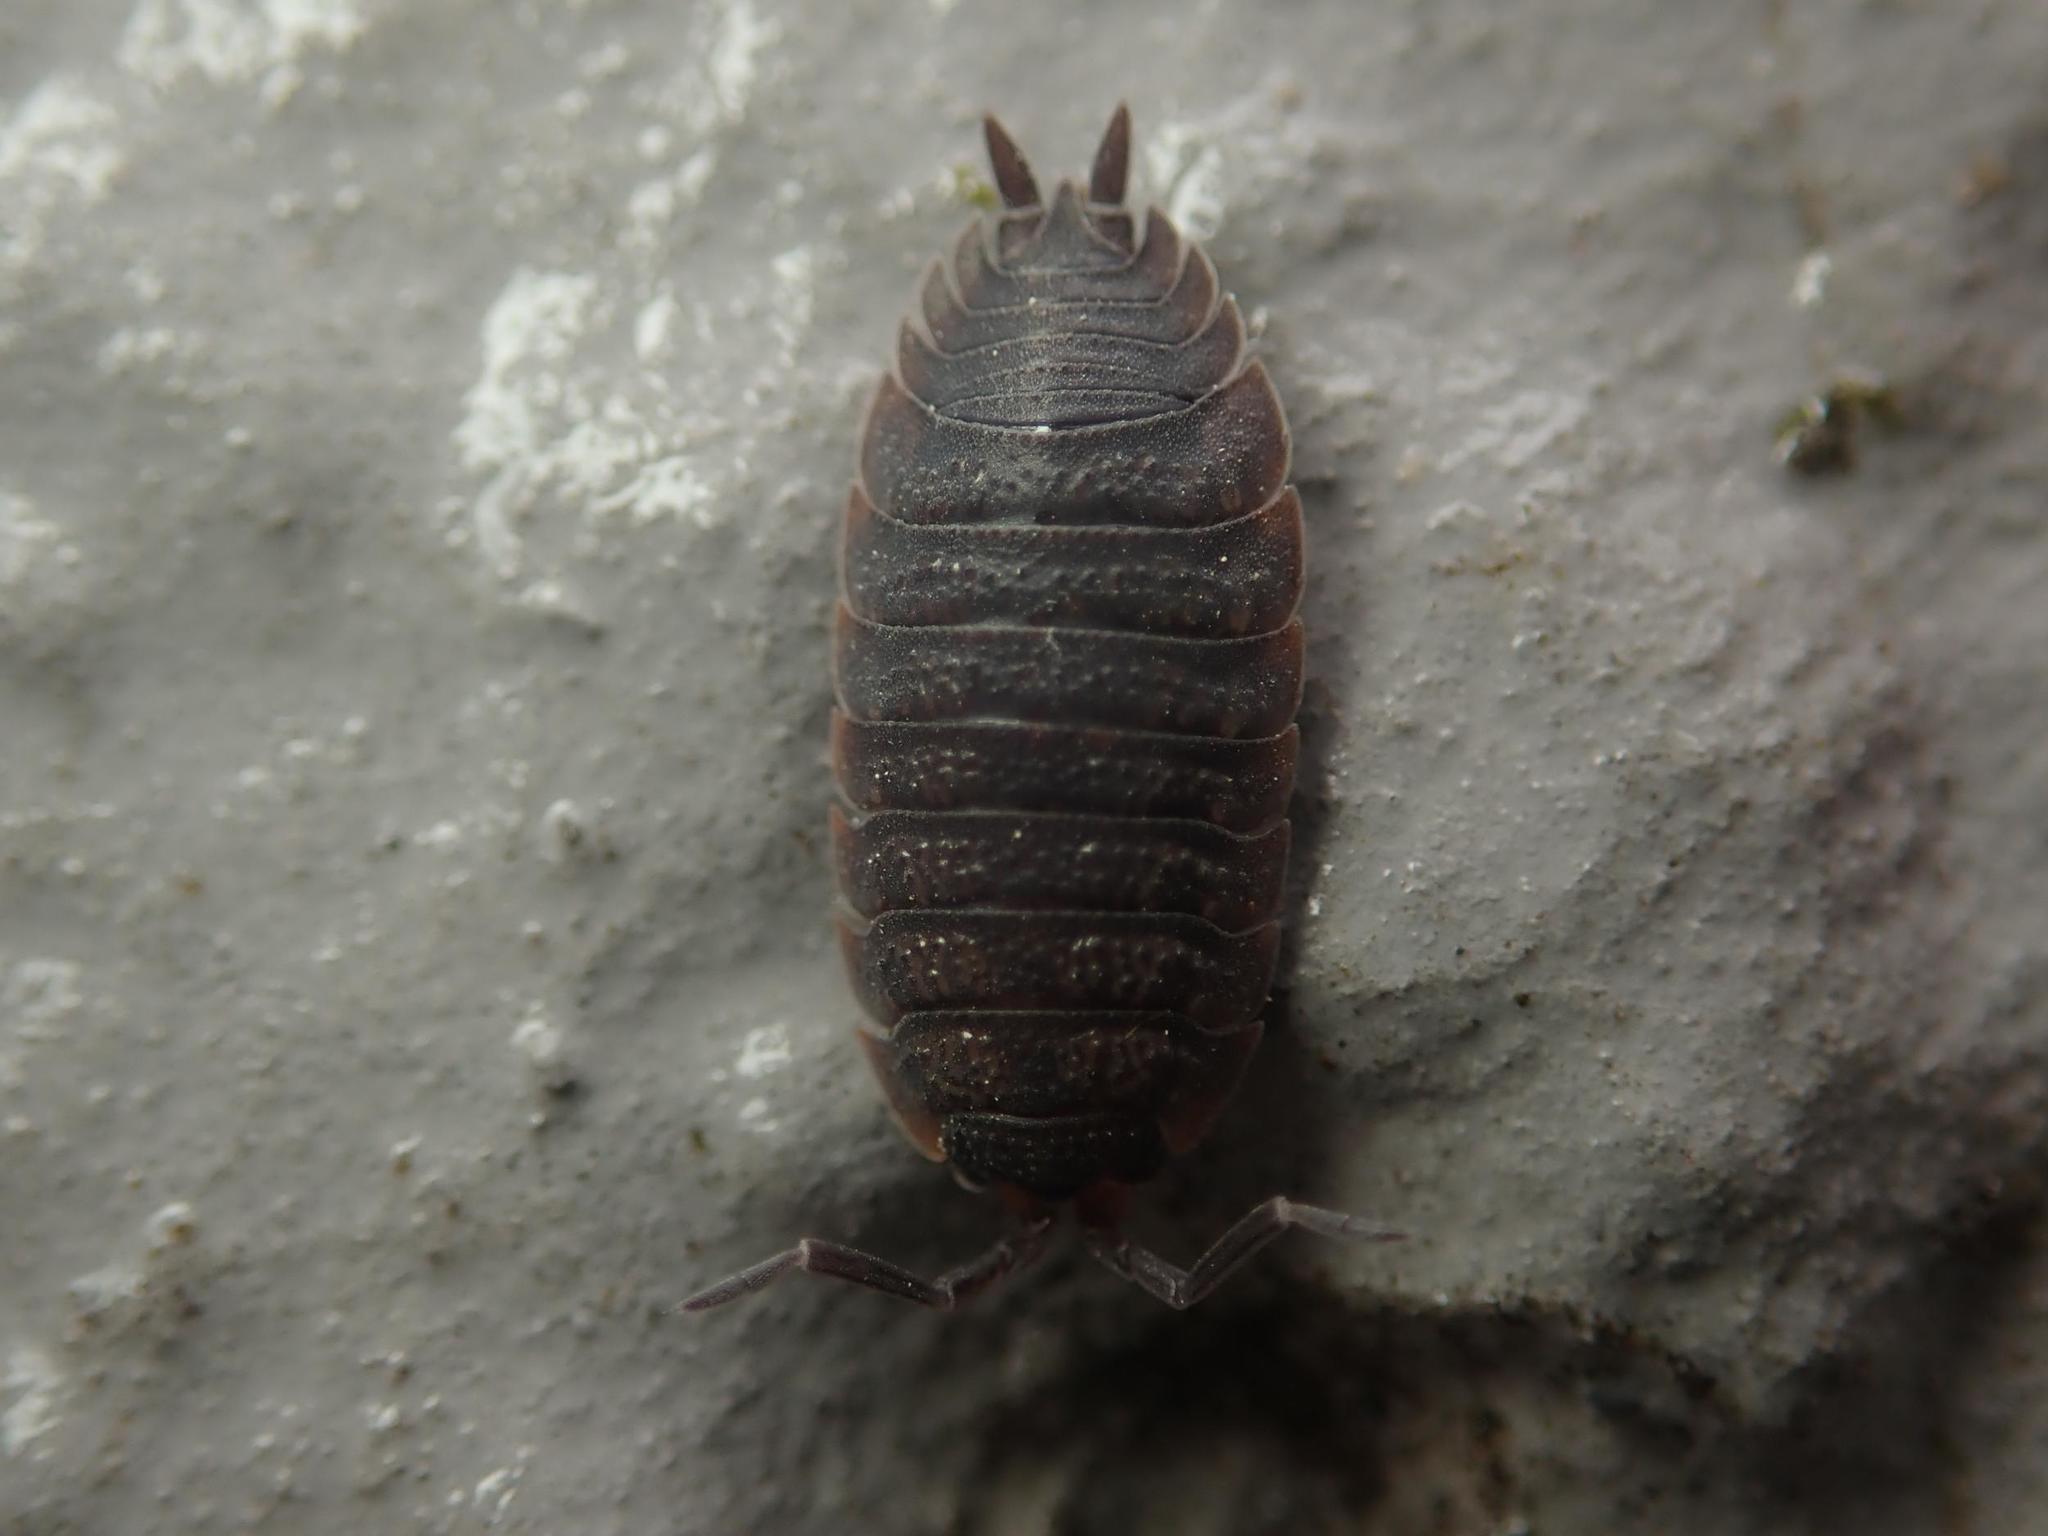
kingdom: Animalia
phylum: Arthropoda
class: Malacostraca
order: Isopoda
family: Porcellionidae
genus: Porcellio
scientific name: Porcellio scaber
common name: Common rough woodlouse
